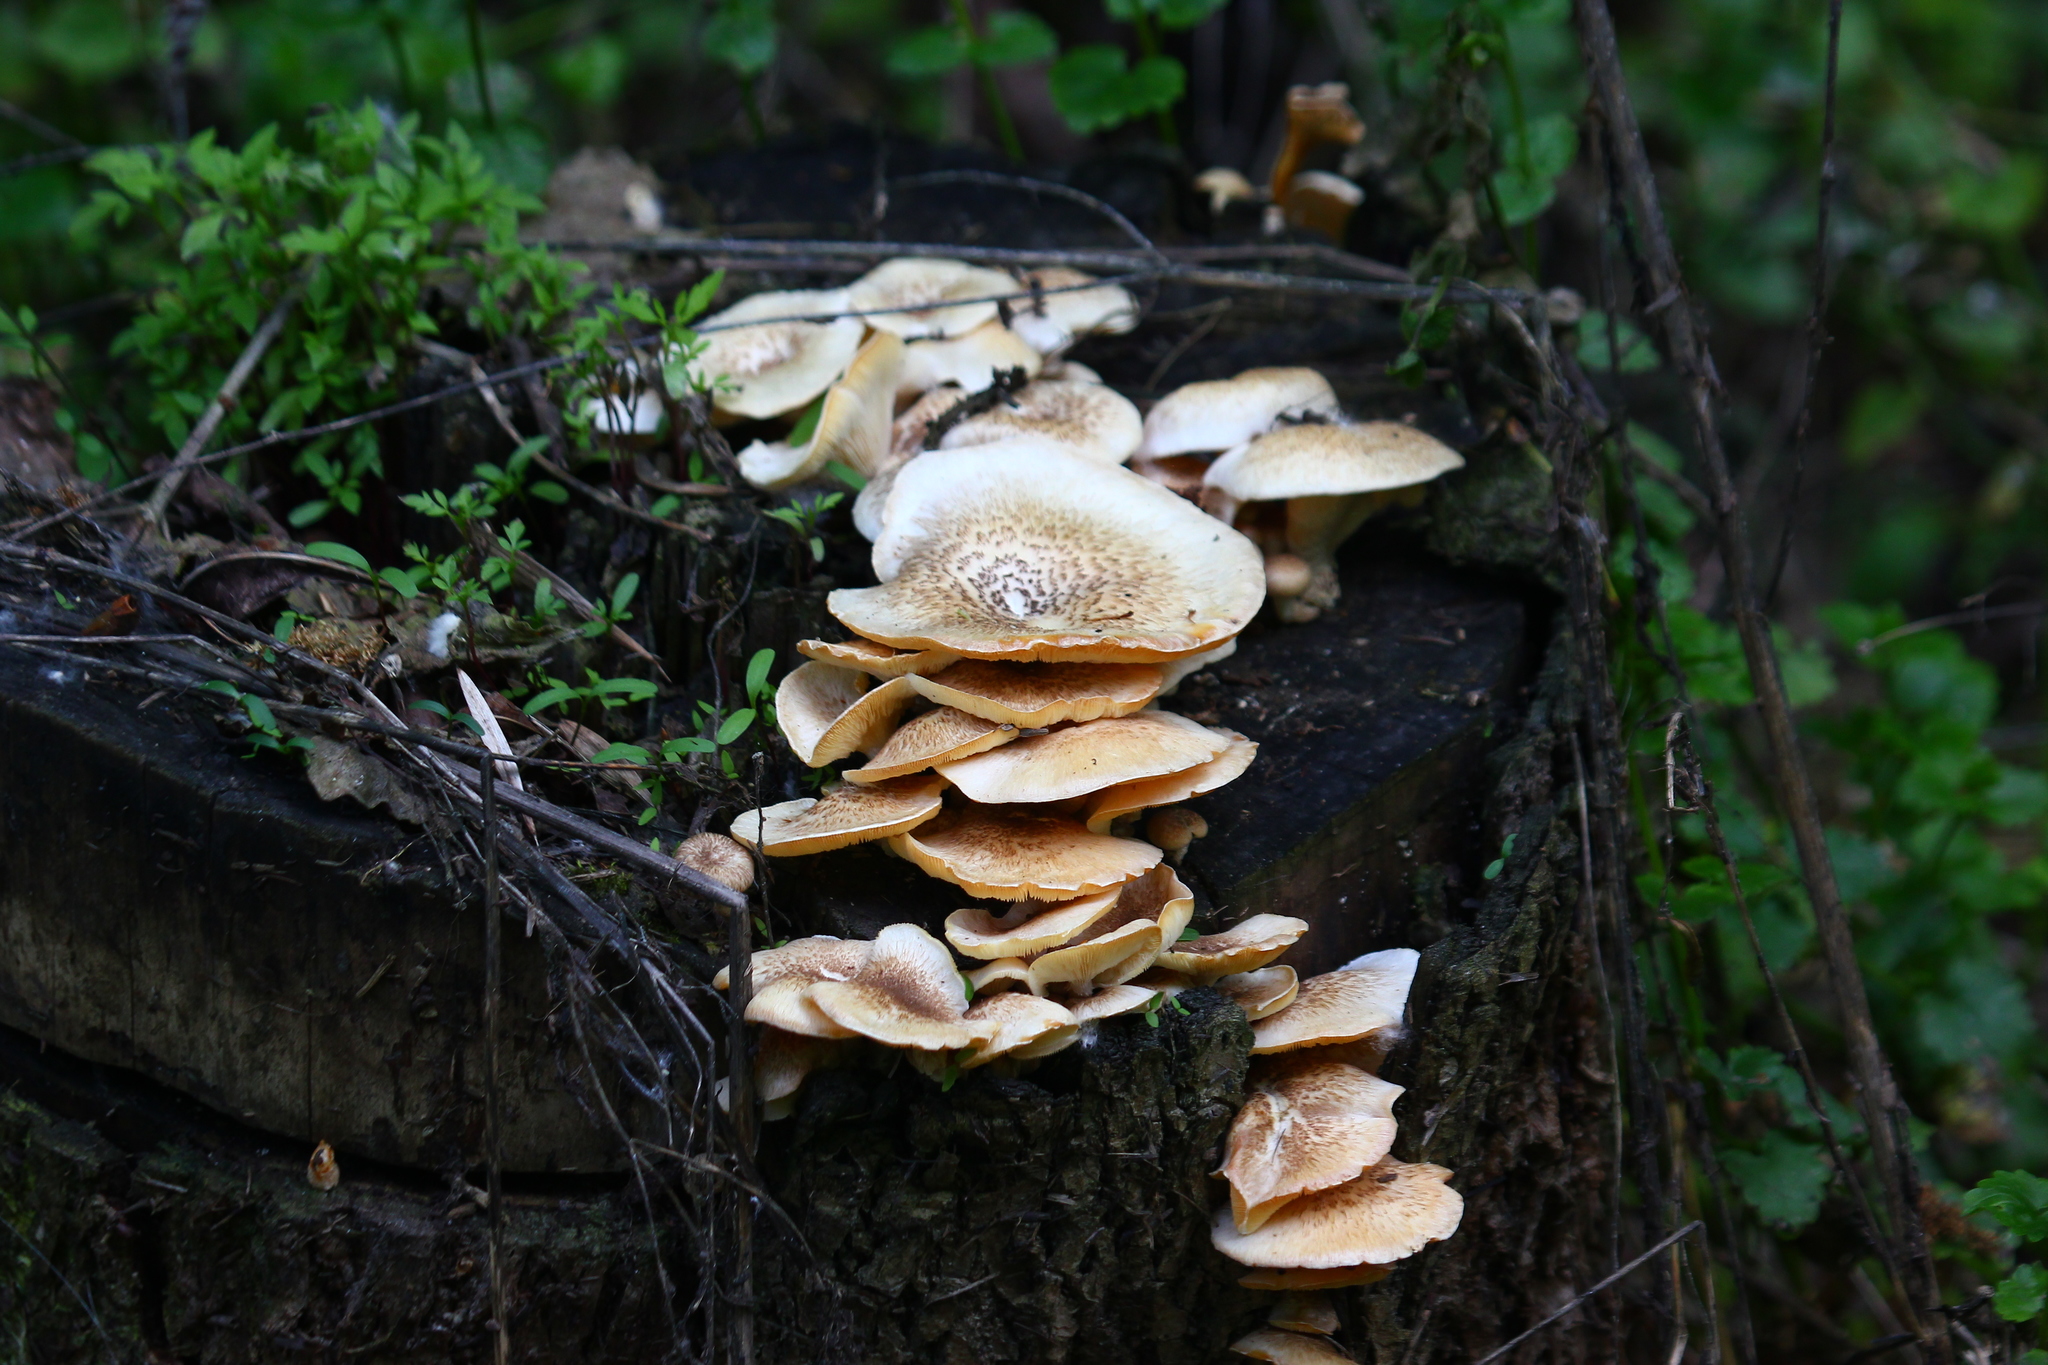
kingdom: Fungi
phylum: Basidiomycota
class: Agaricomycetes
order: Polyporales
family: Polyporaceae
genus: Lentinus
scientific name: Lentinus tigrinus
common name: Tiger sawgill
